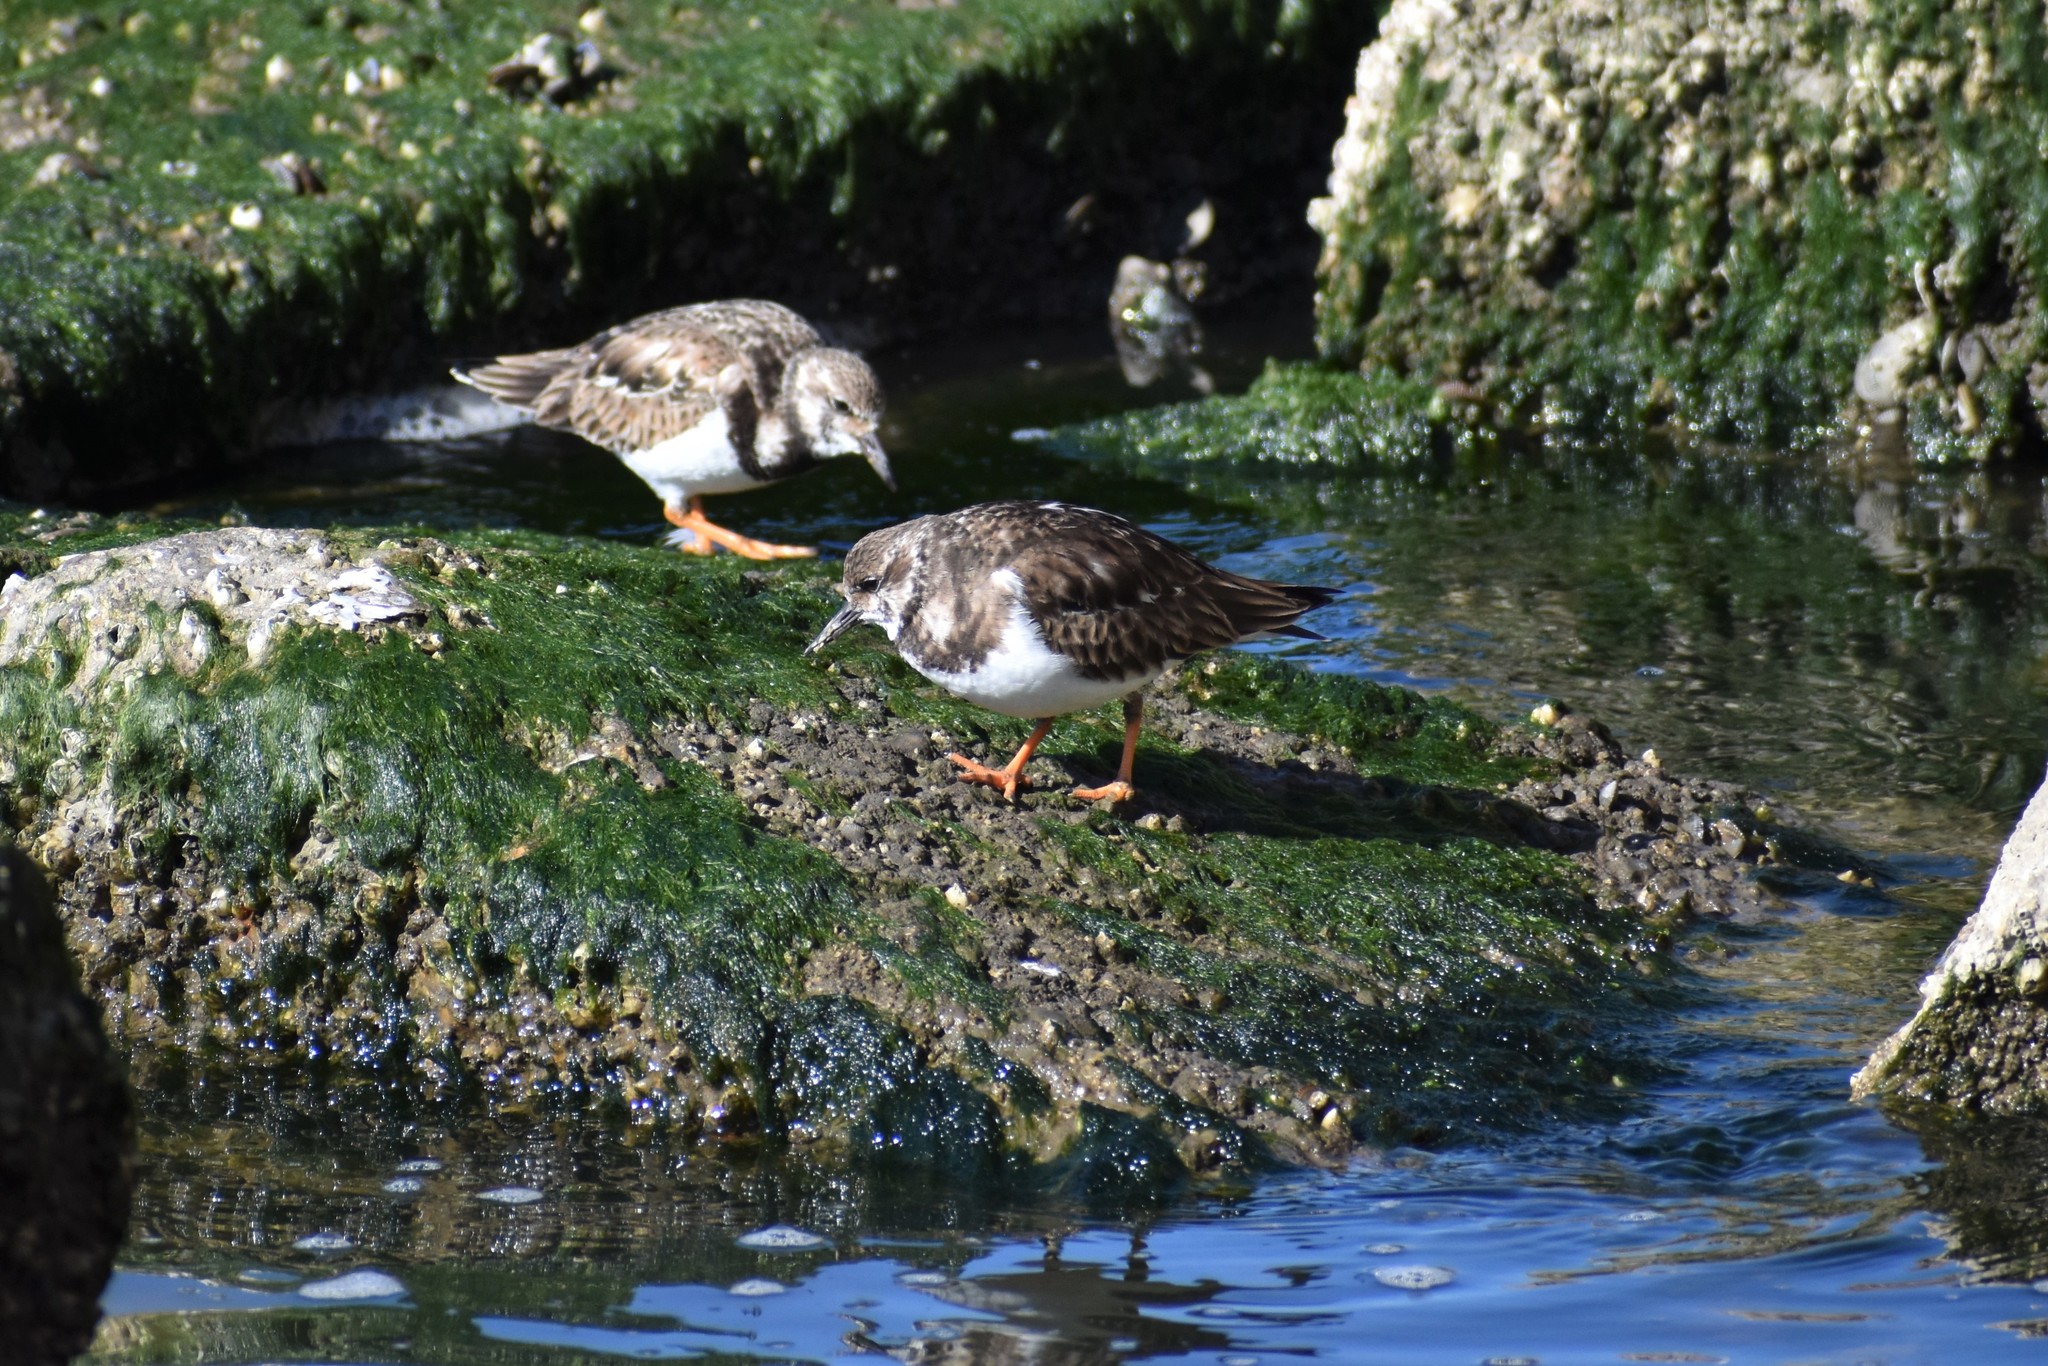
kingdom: Animalia
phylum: Chordata
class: Aves
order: Charadriiformes
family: Scolopacidae
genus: Arenaria
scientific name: Arenaria interpres
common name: Ruddy turnstone
